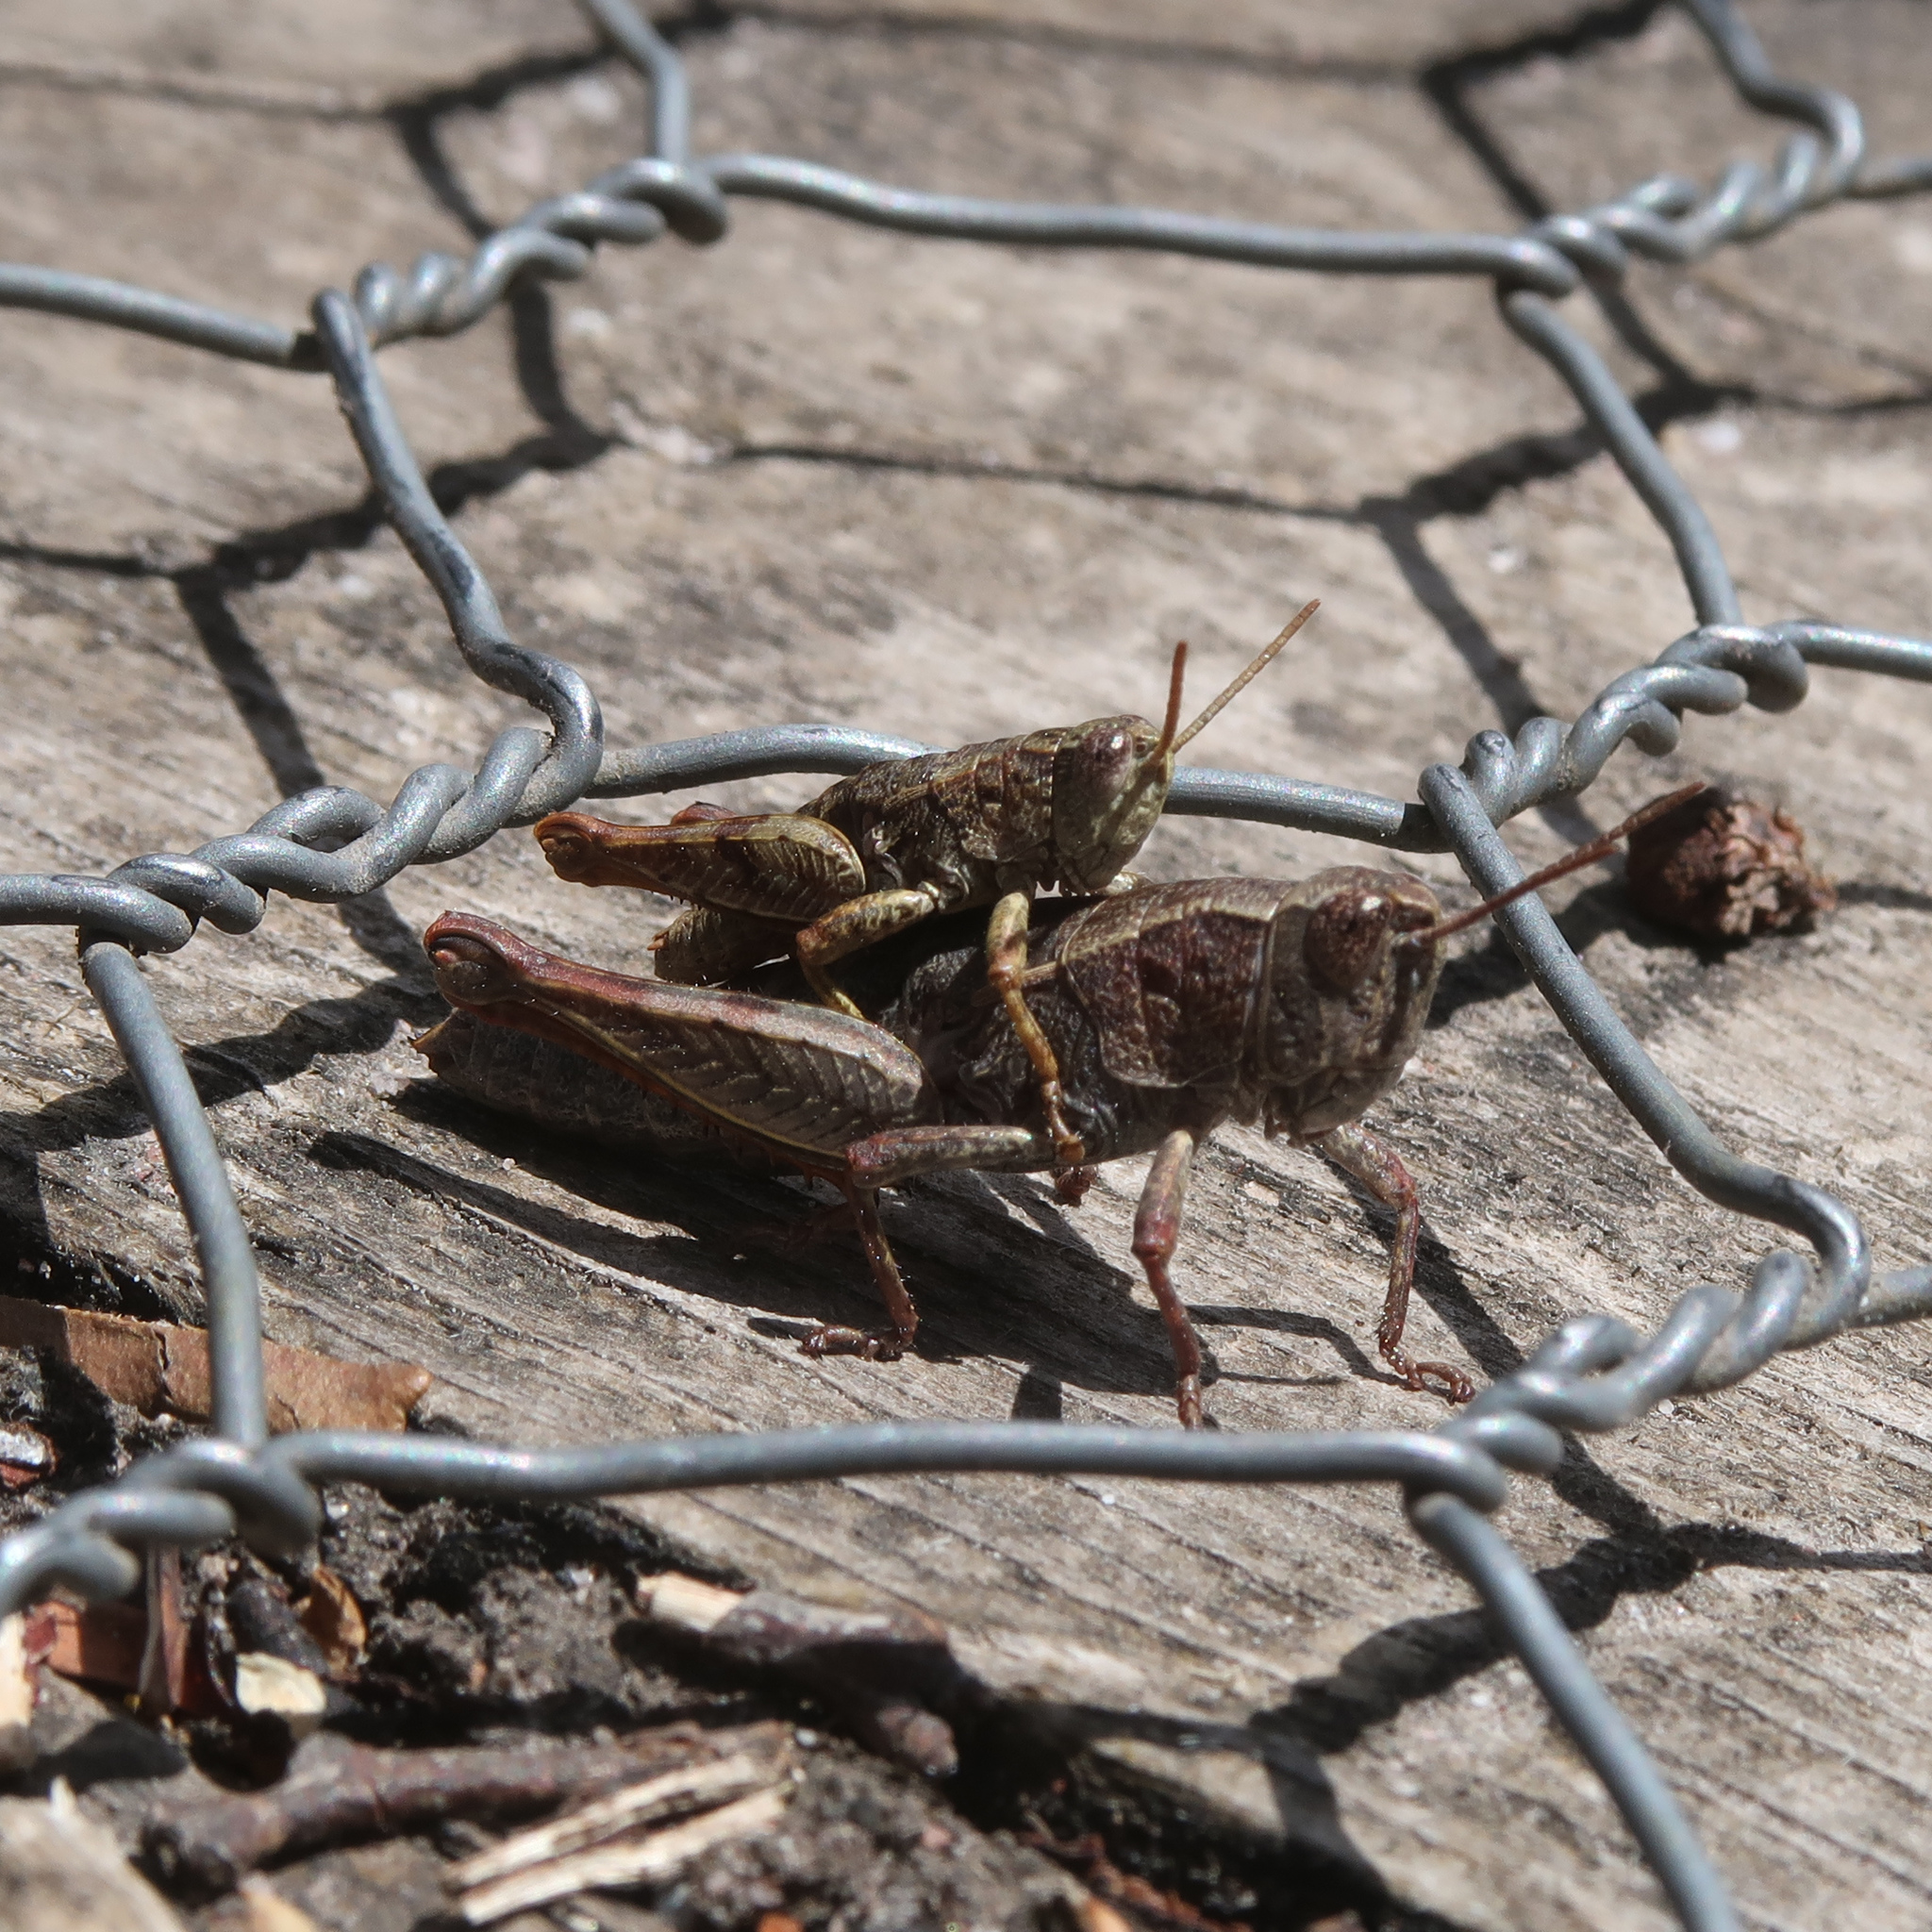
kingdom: Animalia
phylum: Arthropoda
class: Insecta
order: Orthoptera
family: Acrididae
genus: Tasmaniacris
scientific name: Tasmaniacris tasmaniensis
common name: Tasmanian grasshopper
